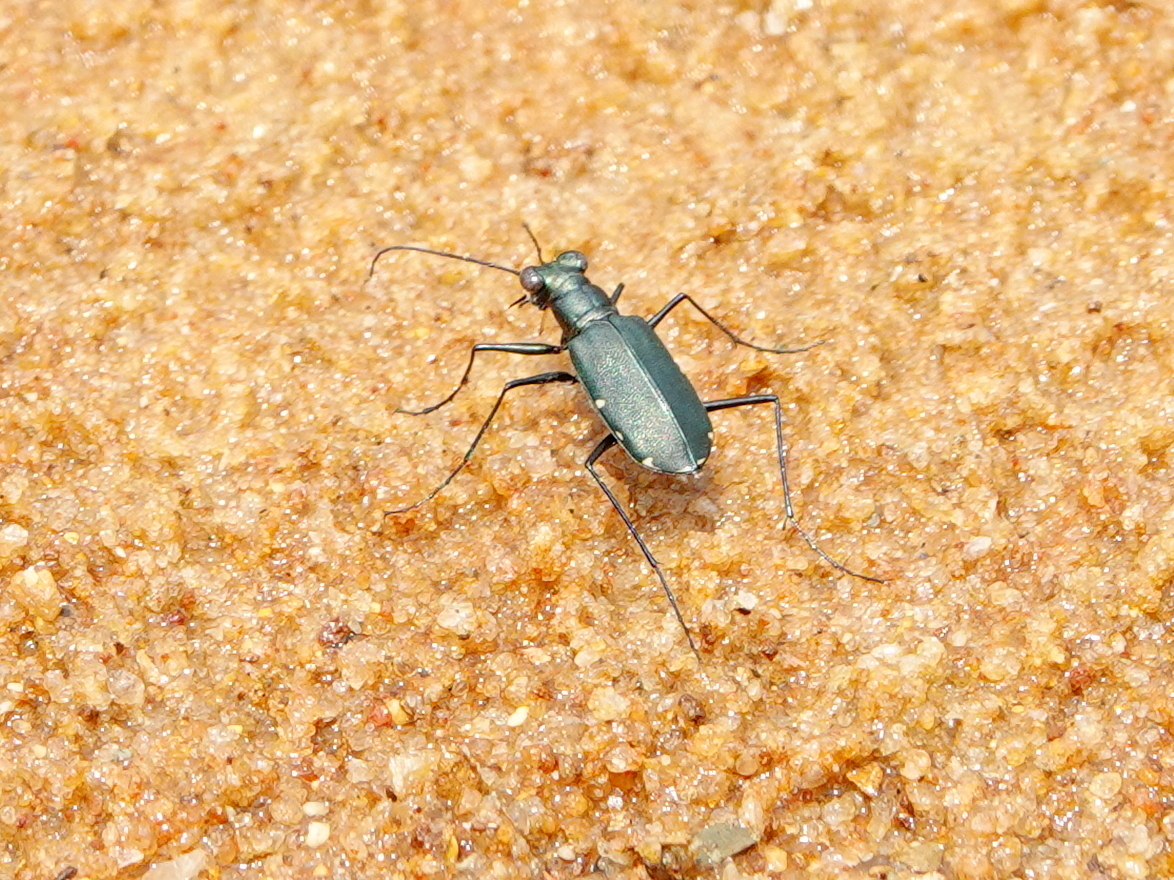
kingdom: Animalia
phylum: Arthropoda
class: Insecta
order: Coleoptera
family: Carabidae
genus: Cicindela
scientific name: Cicindela funerea
